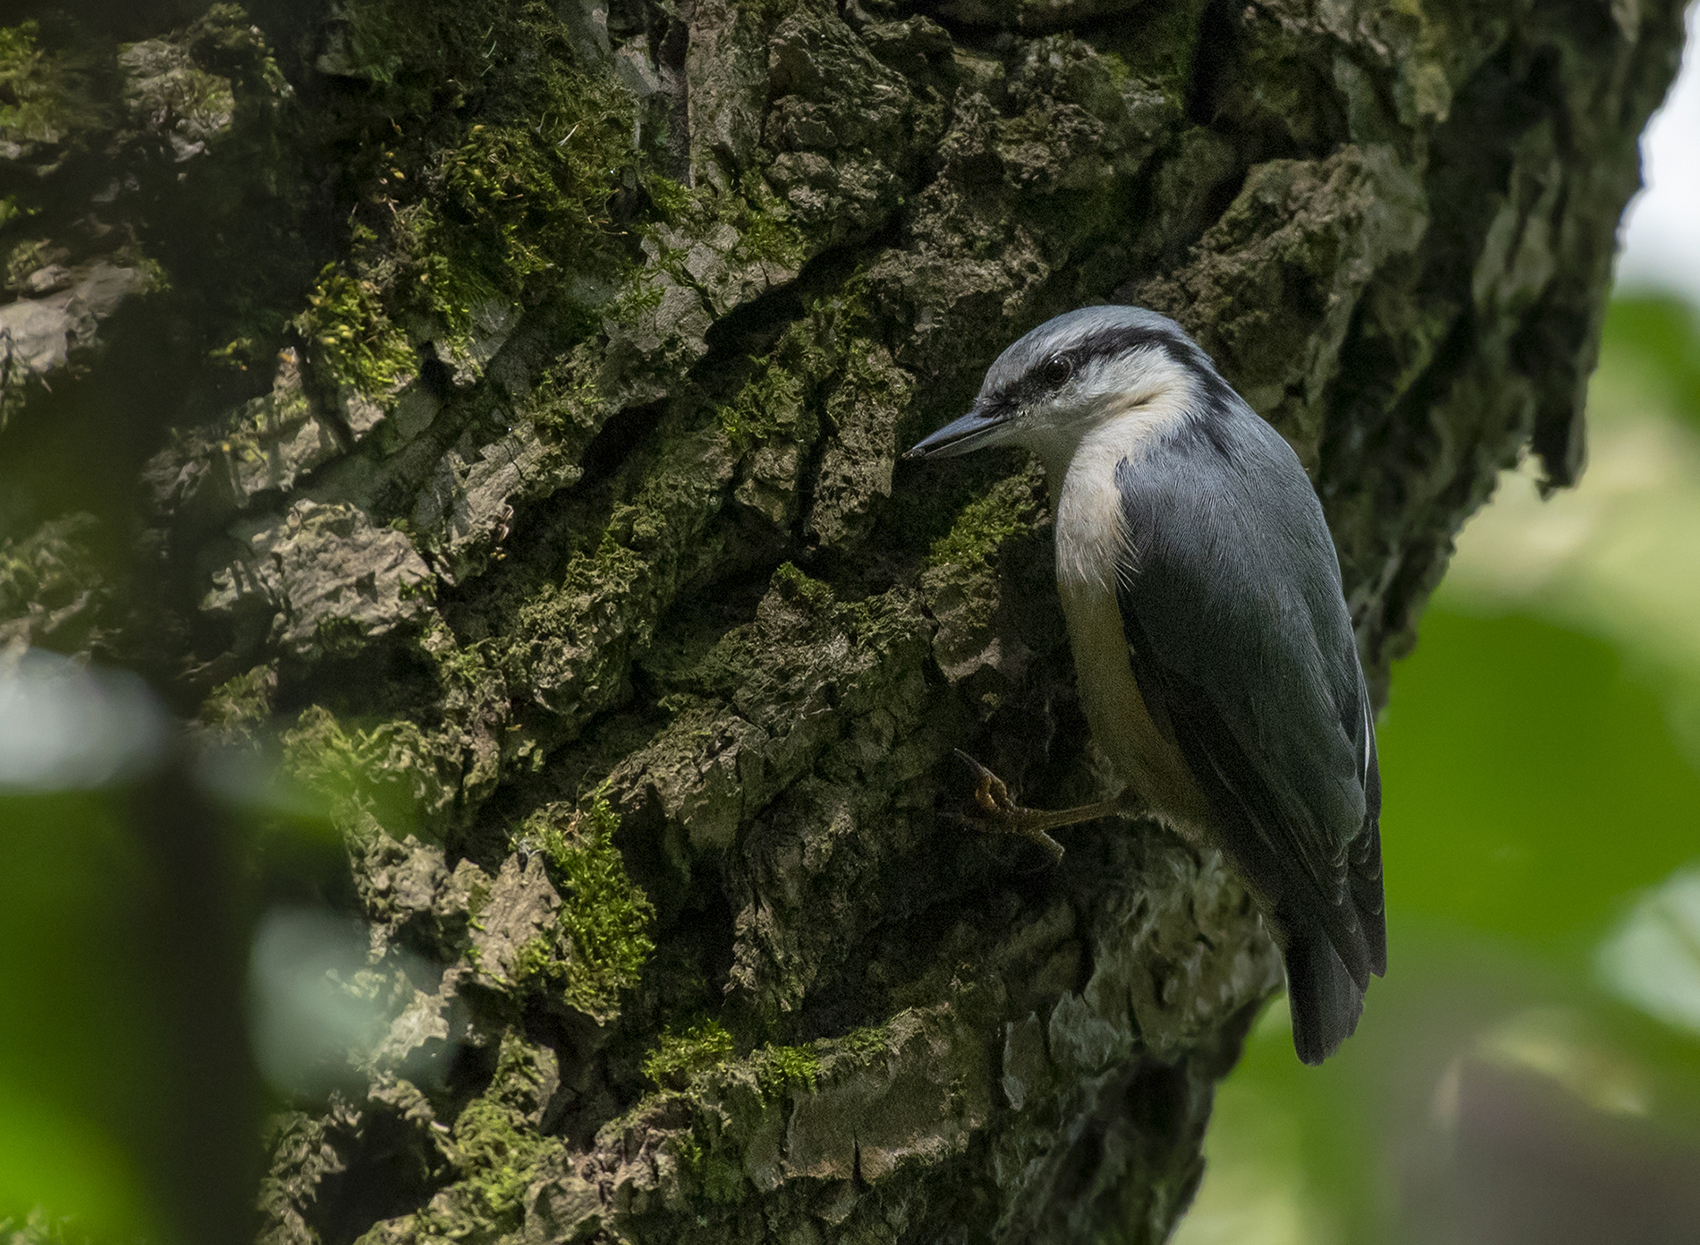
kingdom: Animalia
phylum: Chordata
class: Aves
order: Passeriformes
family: Sittidae
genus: Sitta
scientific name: Sitta europaea
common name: Eurasian nuthatch
